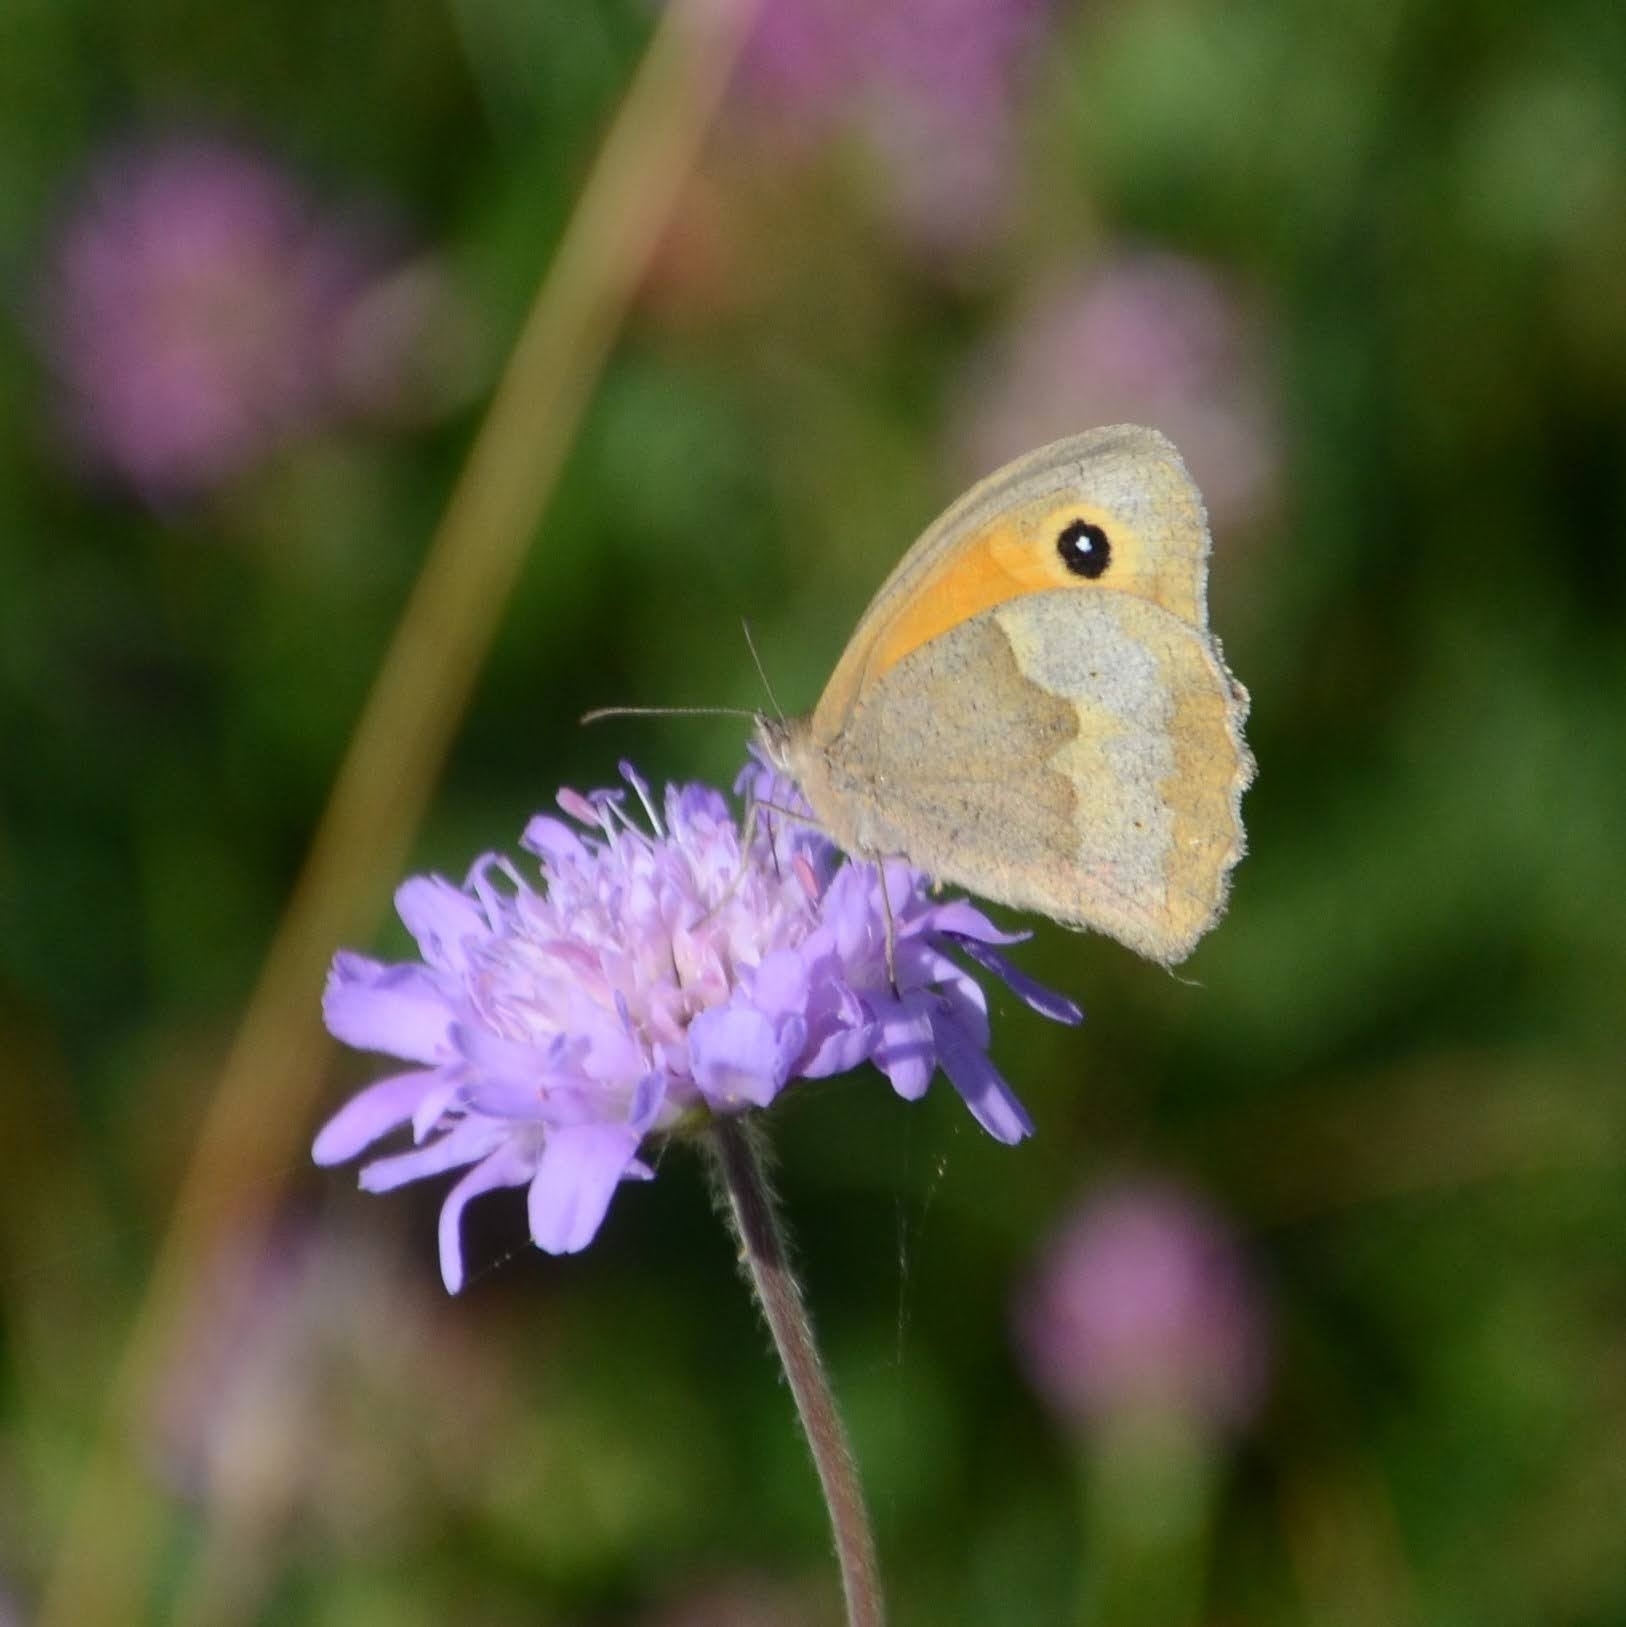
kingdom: Animalia
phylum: Arthropoda
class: Insecta
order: Lepidoptera
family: Nymphalidae
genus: Maniola
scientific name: Maniola jurtina
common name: Meadow brown
